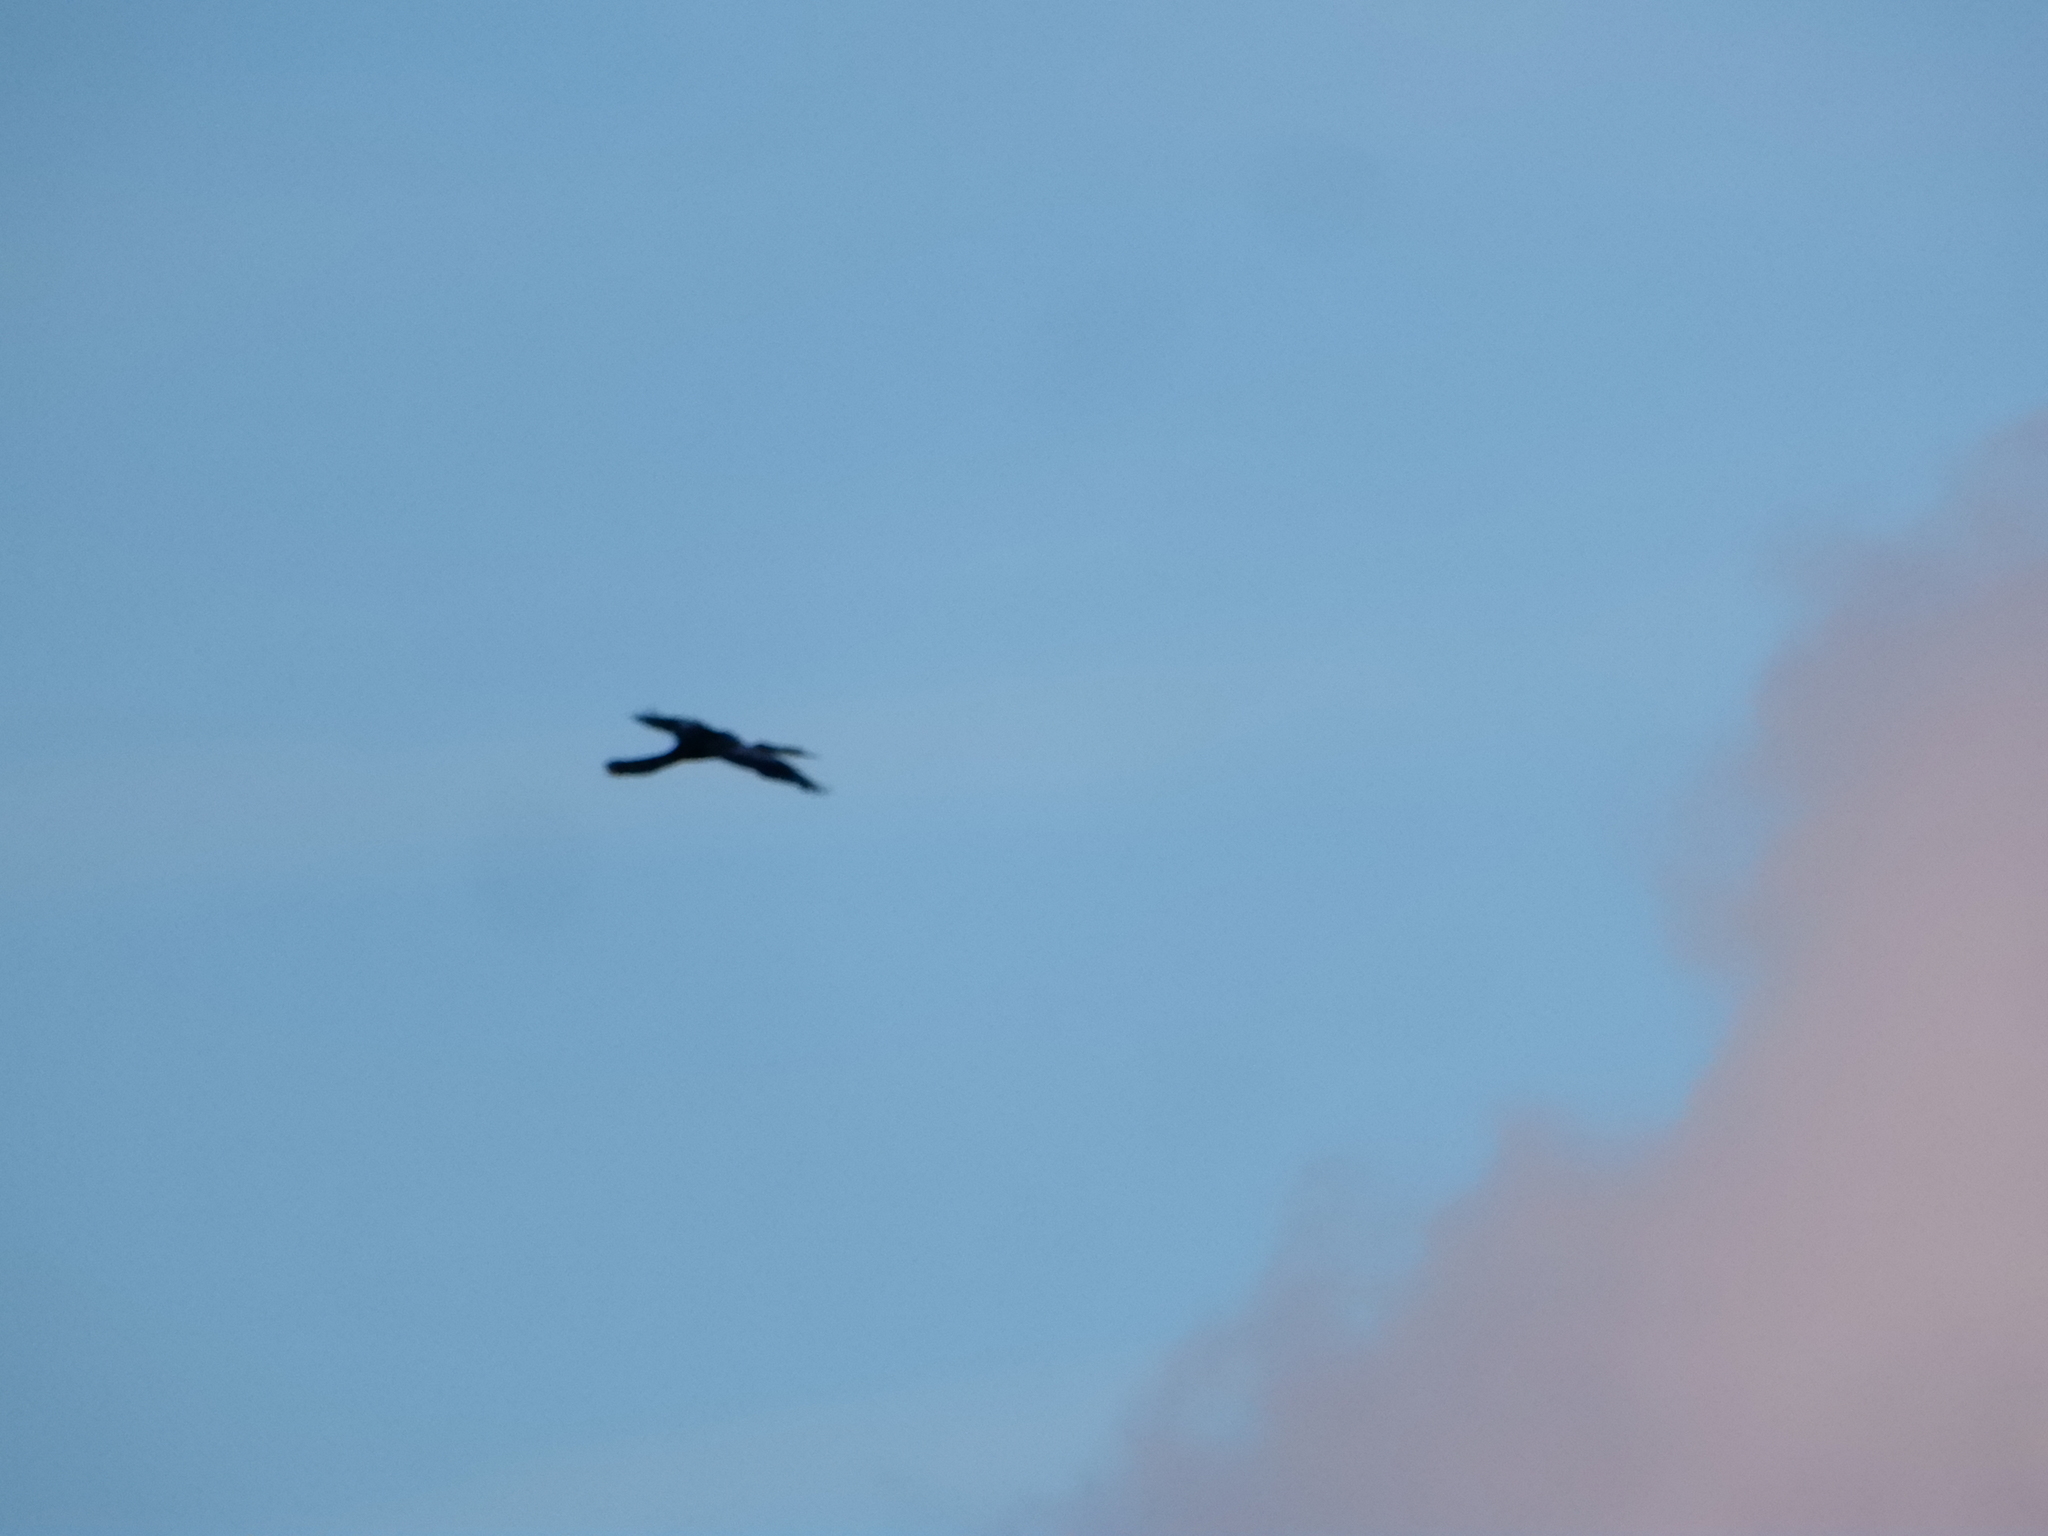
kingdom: Animalia
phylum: Chordata
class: Aves
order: Suliformes
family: Anhingidae
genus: Anhinga
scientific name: Anhinga anhinga
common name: Anhinga
